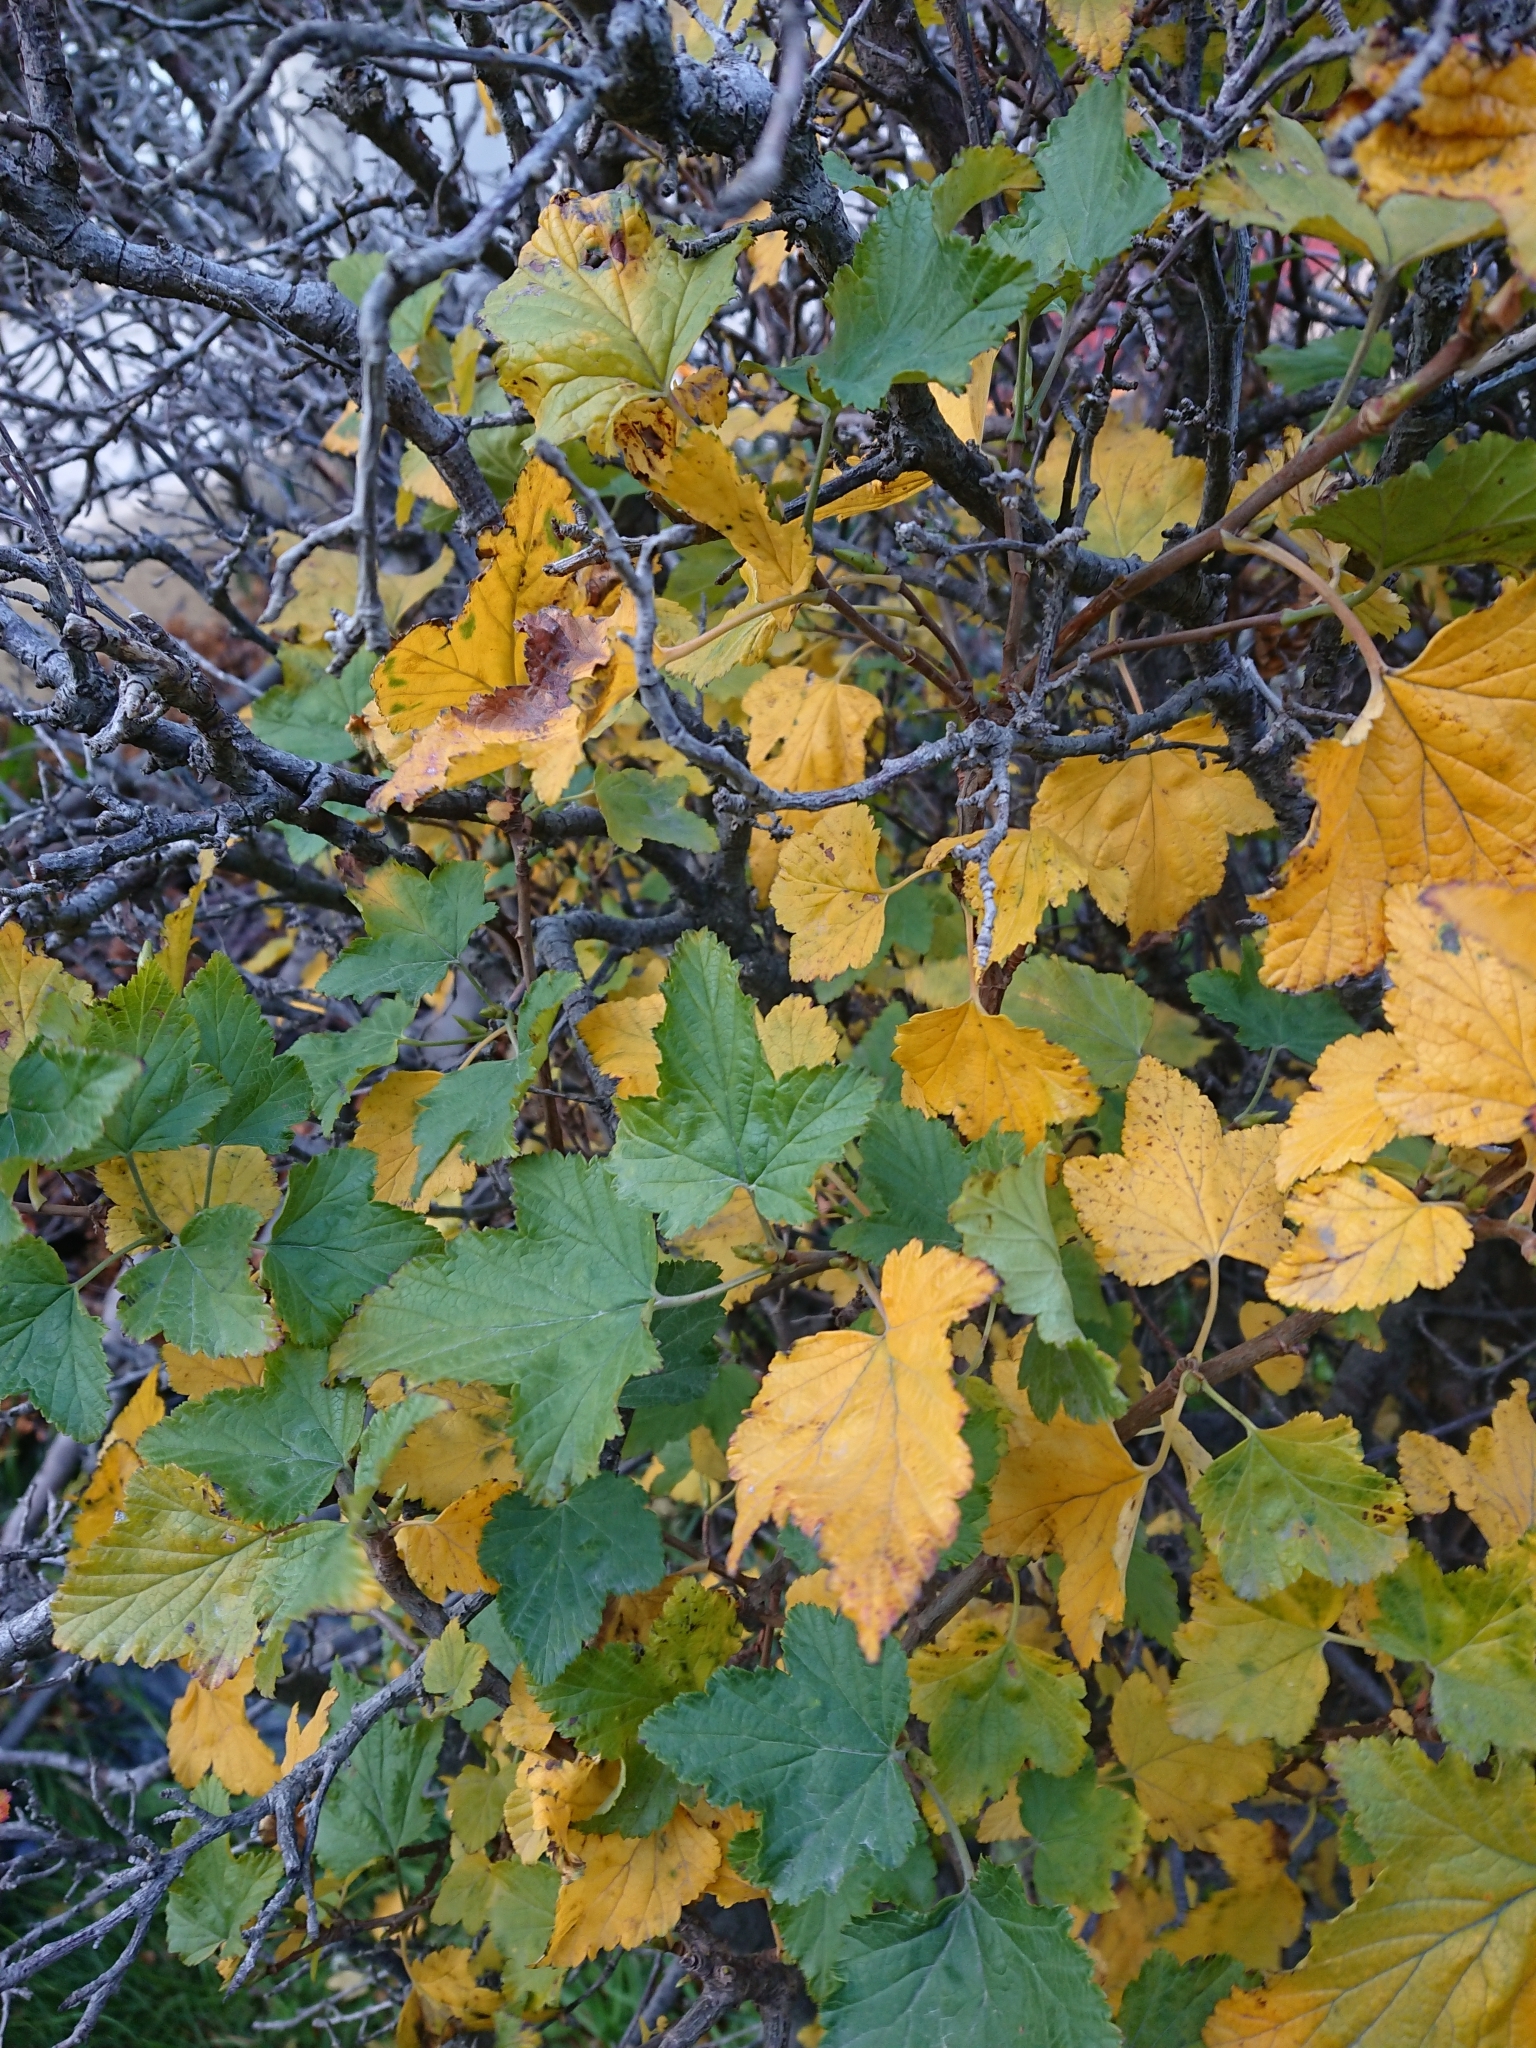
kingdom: Plantae
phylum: Tracheophyta
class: Magnoliopsida
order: Saxifragales
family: Grossulariaceae
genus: Ribes
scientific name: Ribes magellanicum
